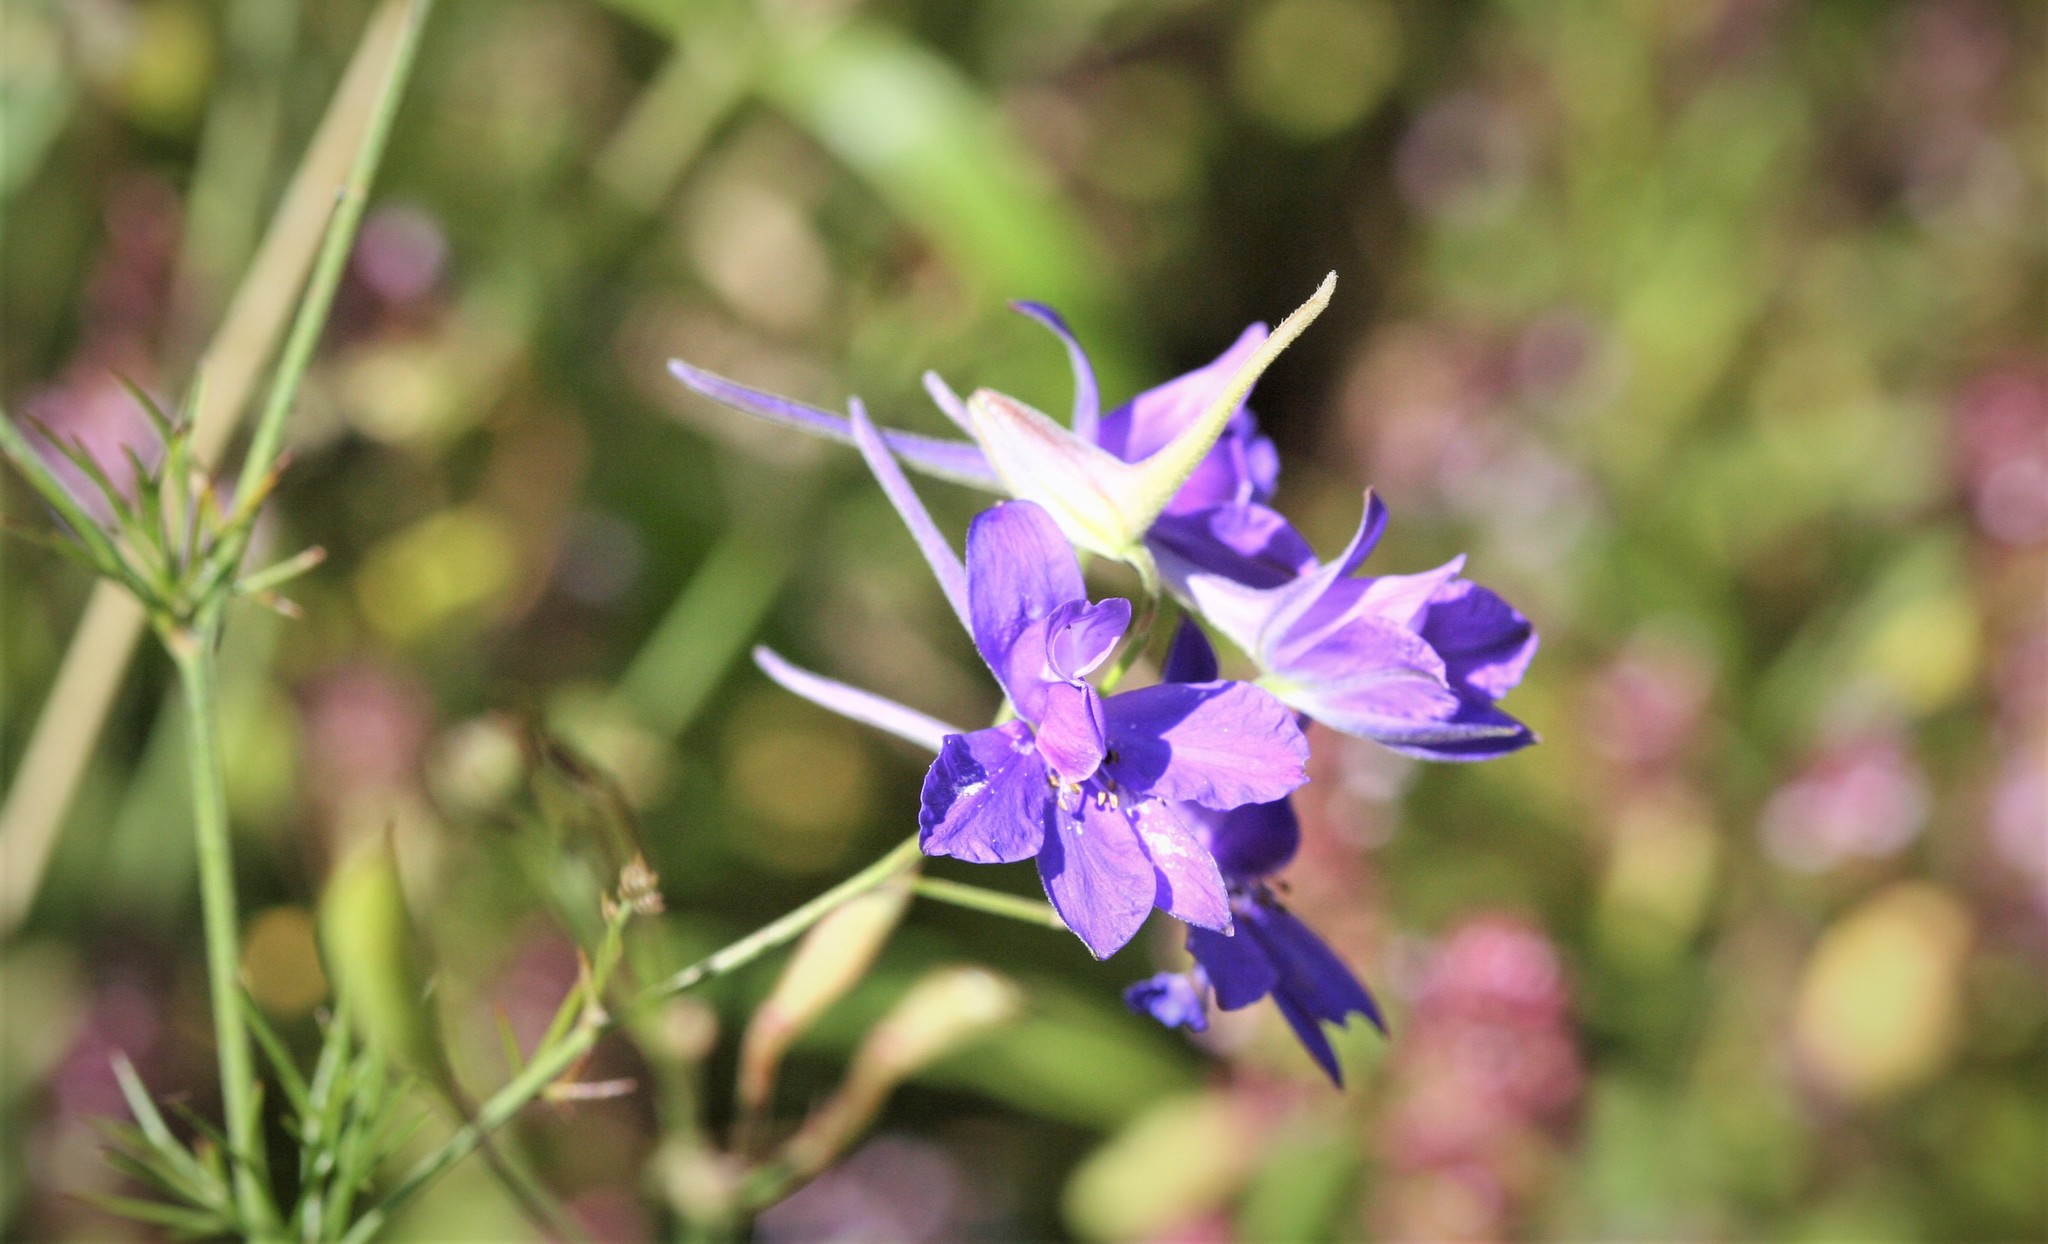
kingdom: Plantae
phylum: Tracheophyta
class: Magnoliopsida
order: Ranunculales
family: Ranunculaceae
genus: Delphinium
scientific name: Delphinium consolida
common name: Branching larkspur
